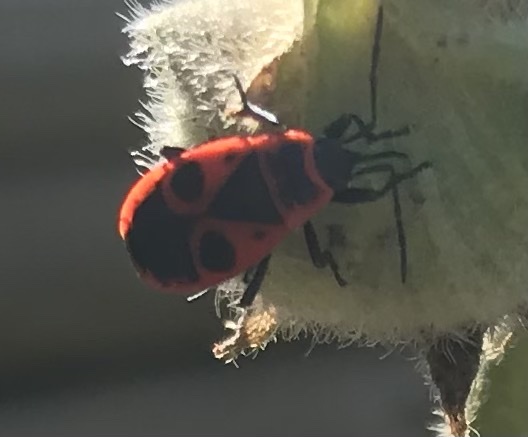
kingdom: Animalia
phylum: Arthropoda
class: Insecta
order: Hemiptera
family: Pyrrhocoridae
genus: Pyrrhocoris
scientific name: Pyrrhocoris apterus
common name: Firebug
